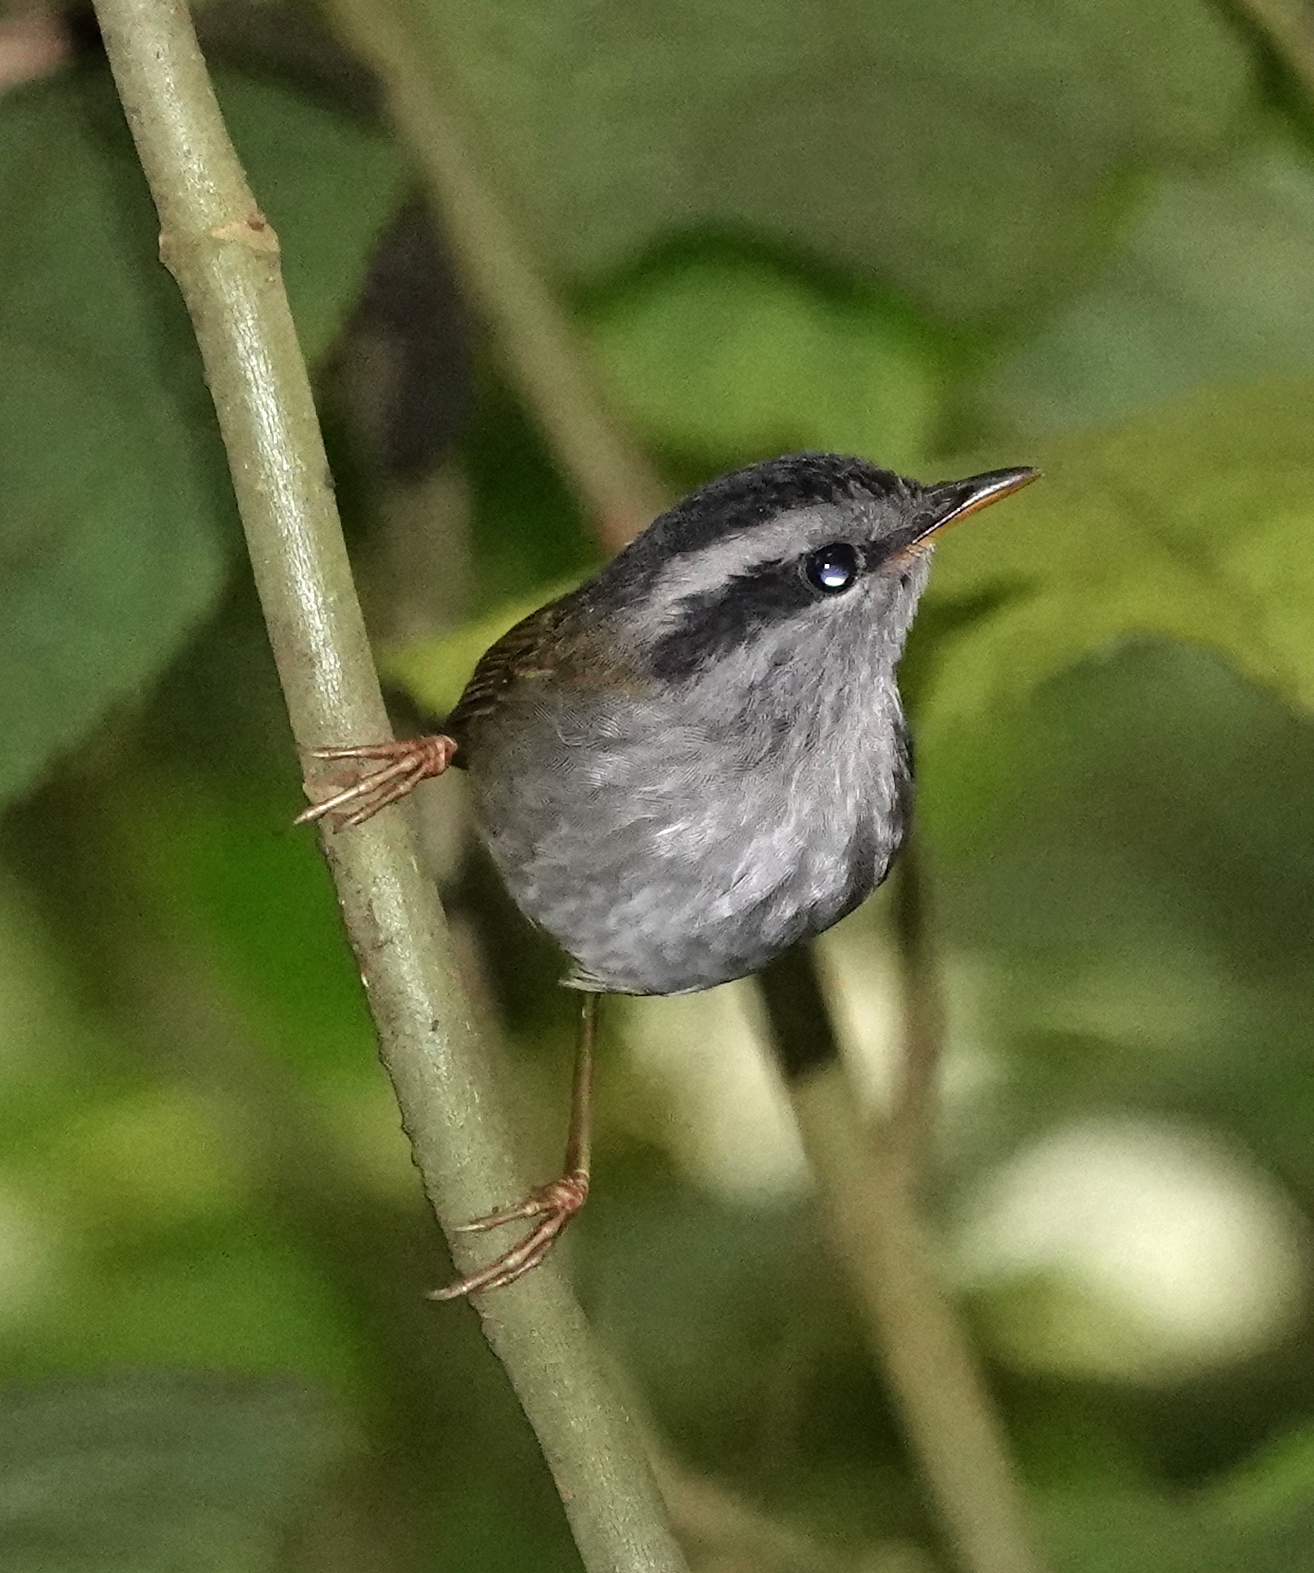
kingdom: Animalia
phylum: Chordata
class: Aves
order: Passeriformes
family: Cettiidae
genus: Tesia
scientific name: Tesia superciliaris
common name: Javan tesia
